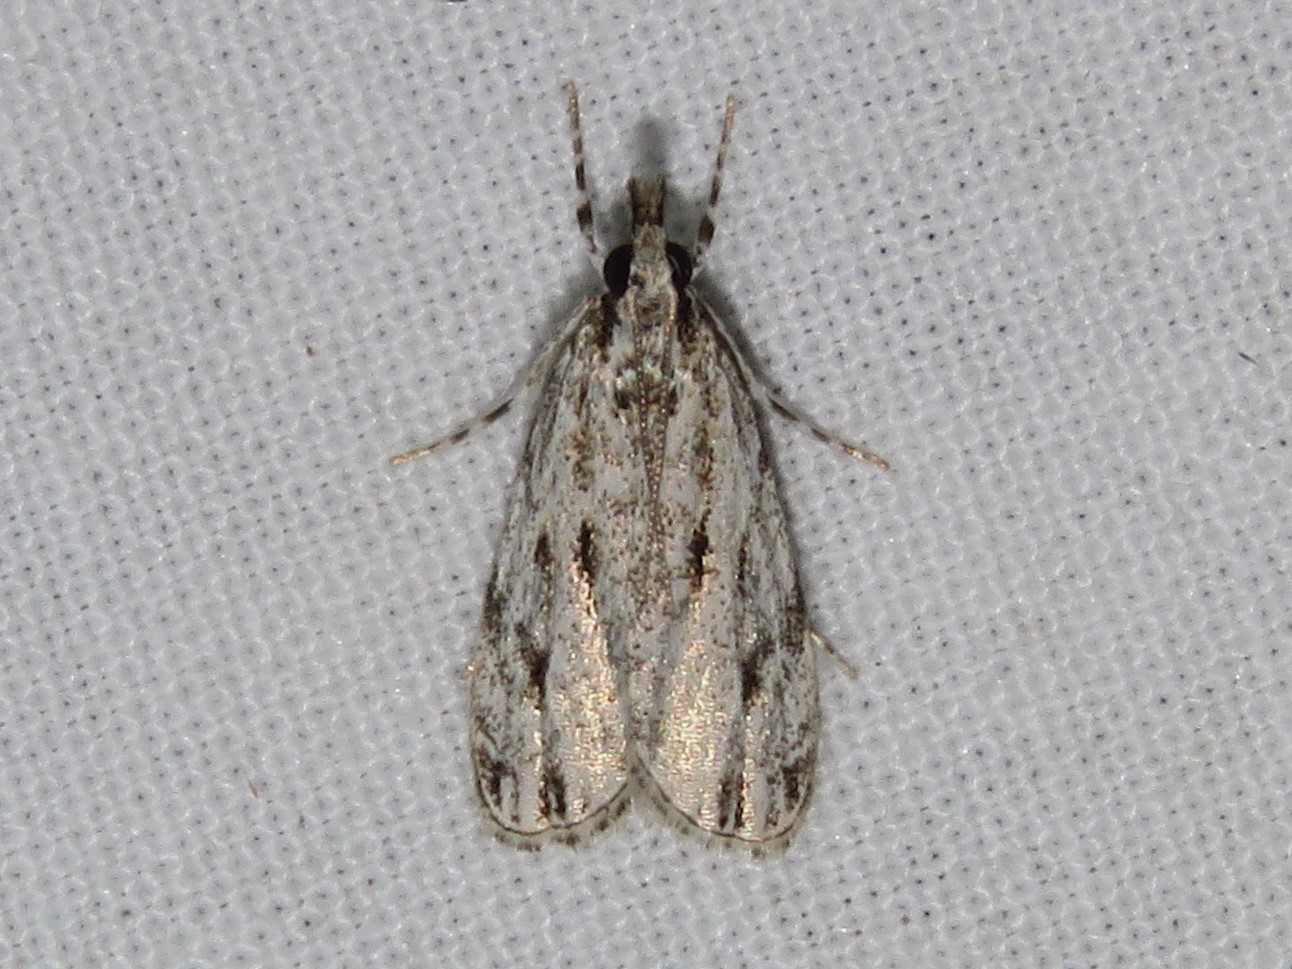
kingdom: Animalia
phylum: Arthropoda
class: Insecta
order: Lepidoptera
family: Crambidae
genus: Eudonia
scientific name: Eudonia strigalis
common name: Striped eudonia moth
